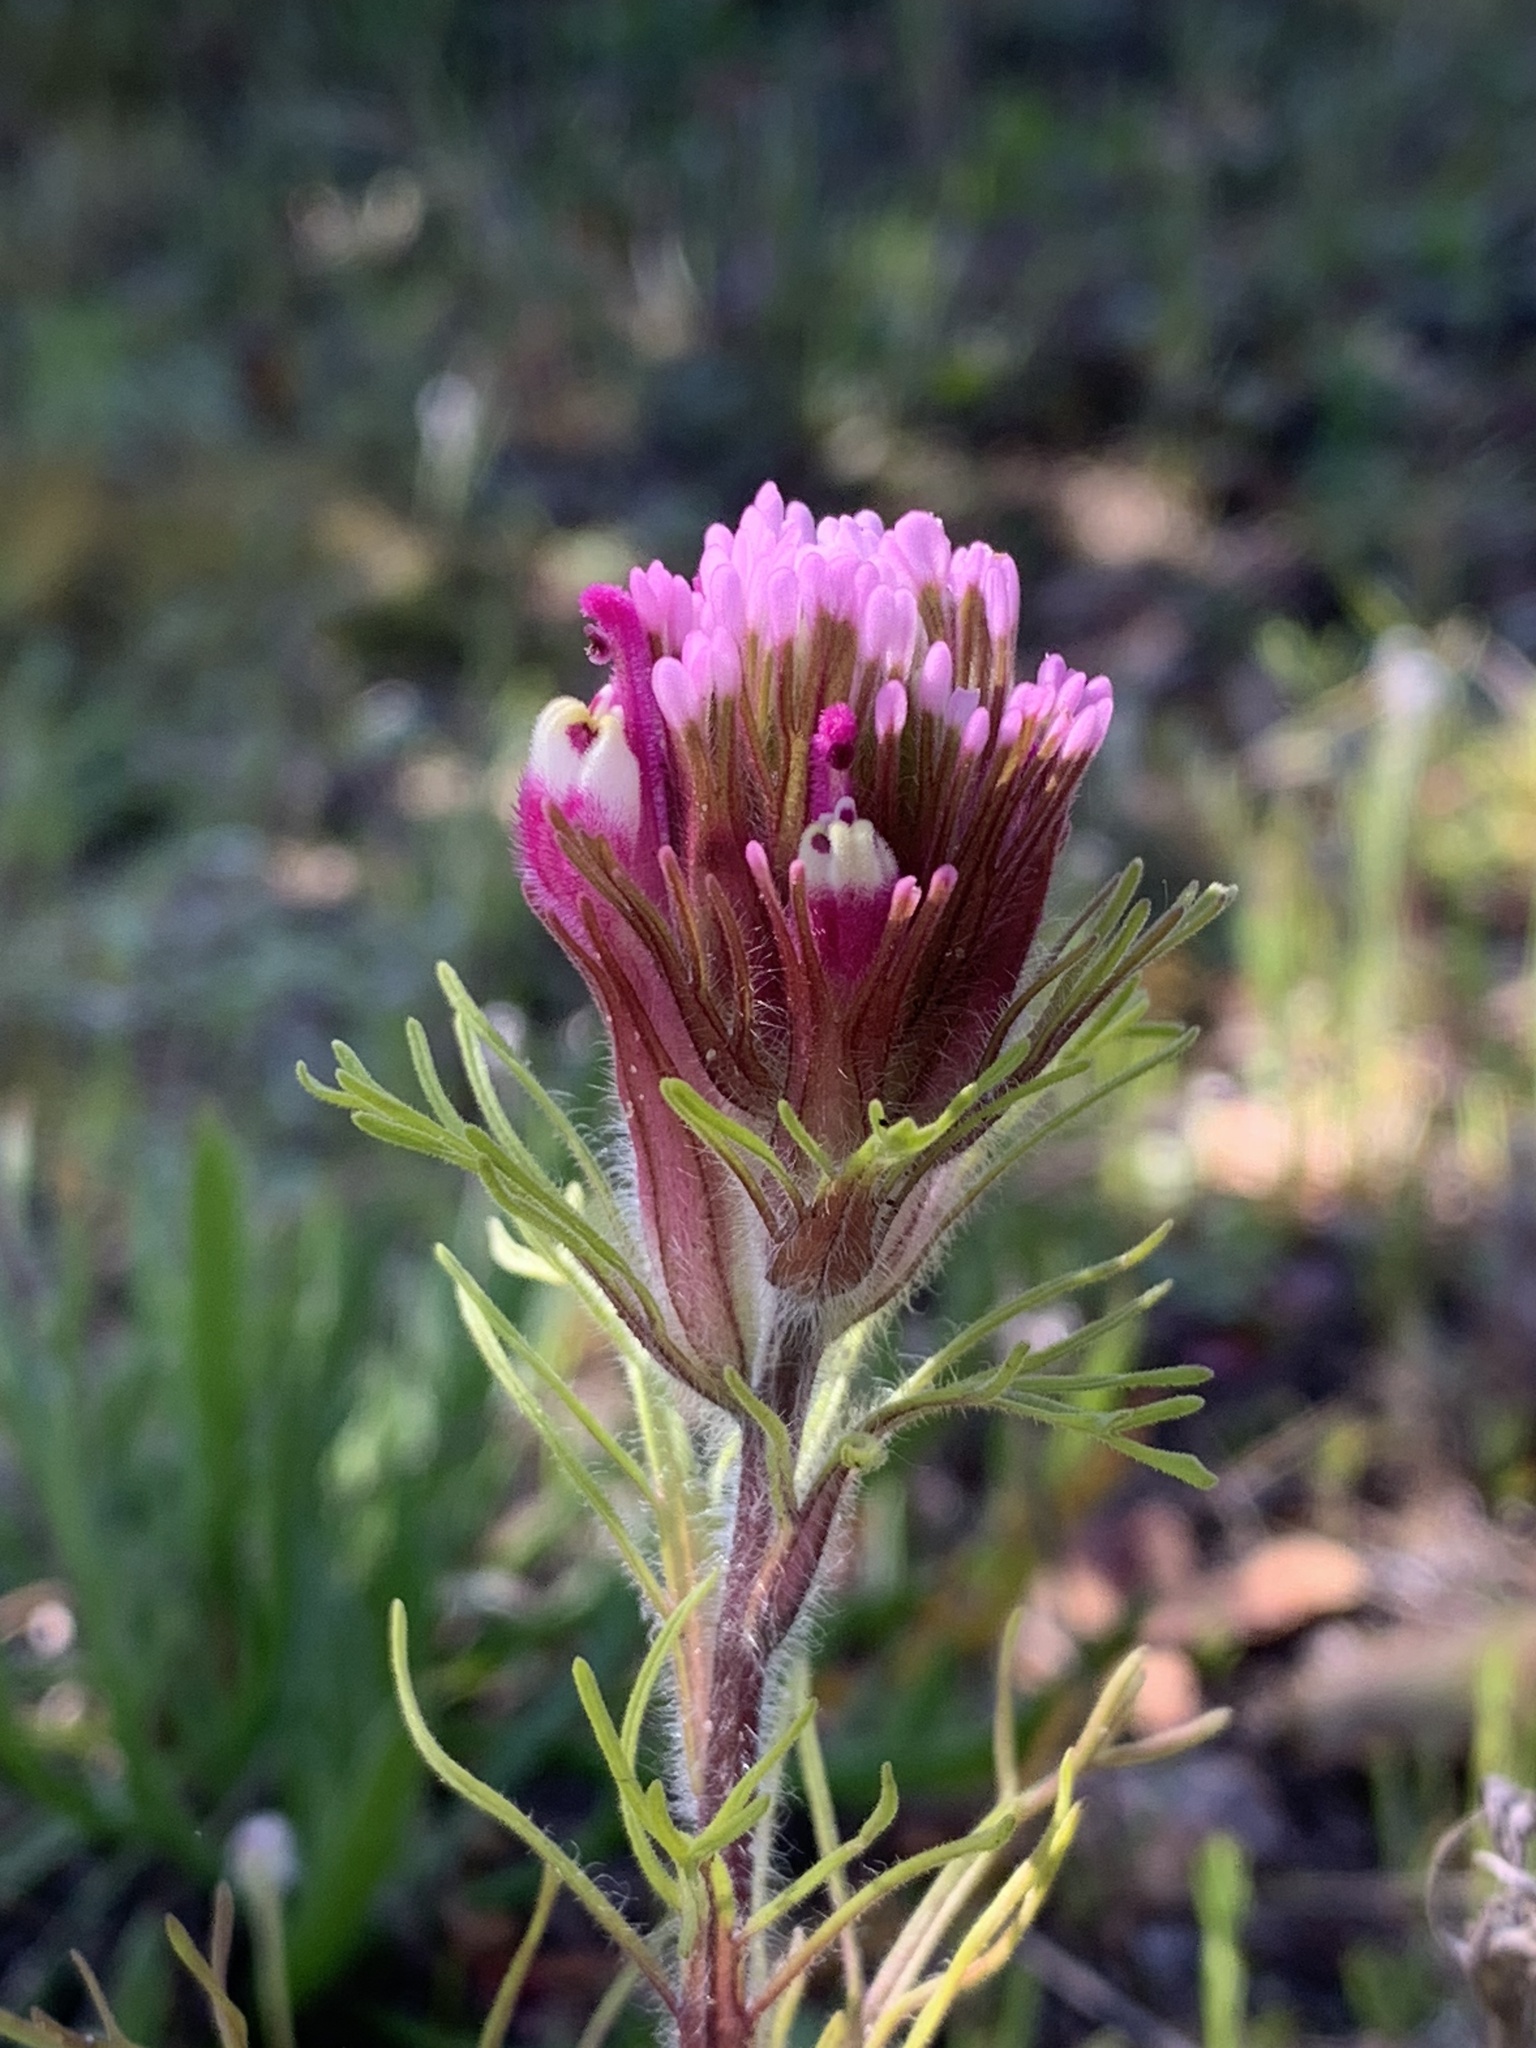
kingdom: Plantae
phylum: Tracheophyta
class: Magnoliopsida
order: Lamiales
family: Orobanchaceae
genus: Castilleja
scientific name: Castilleja exserta
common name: Purple owl-clover
